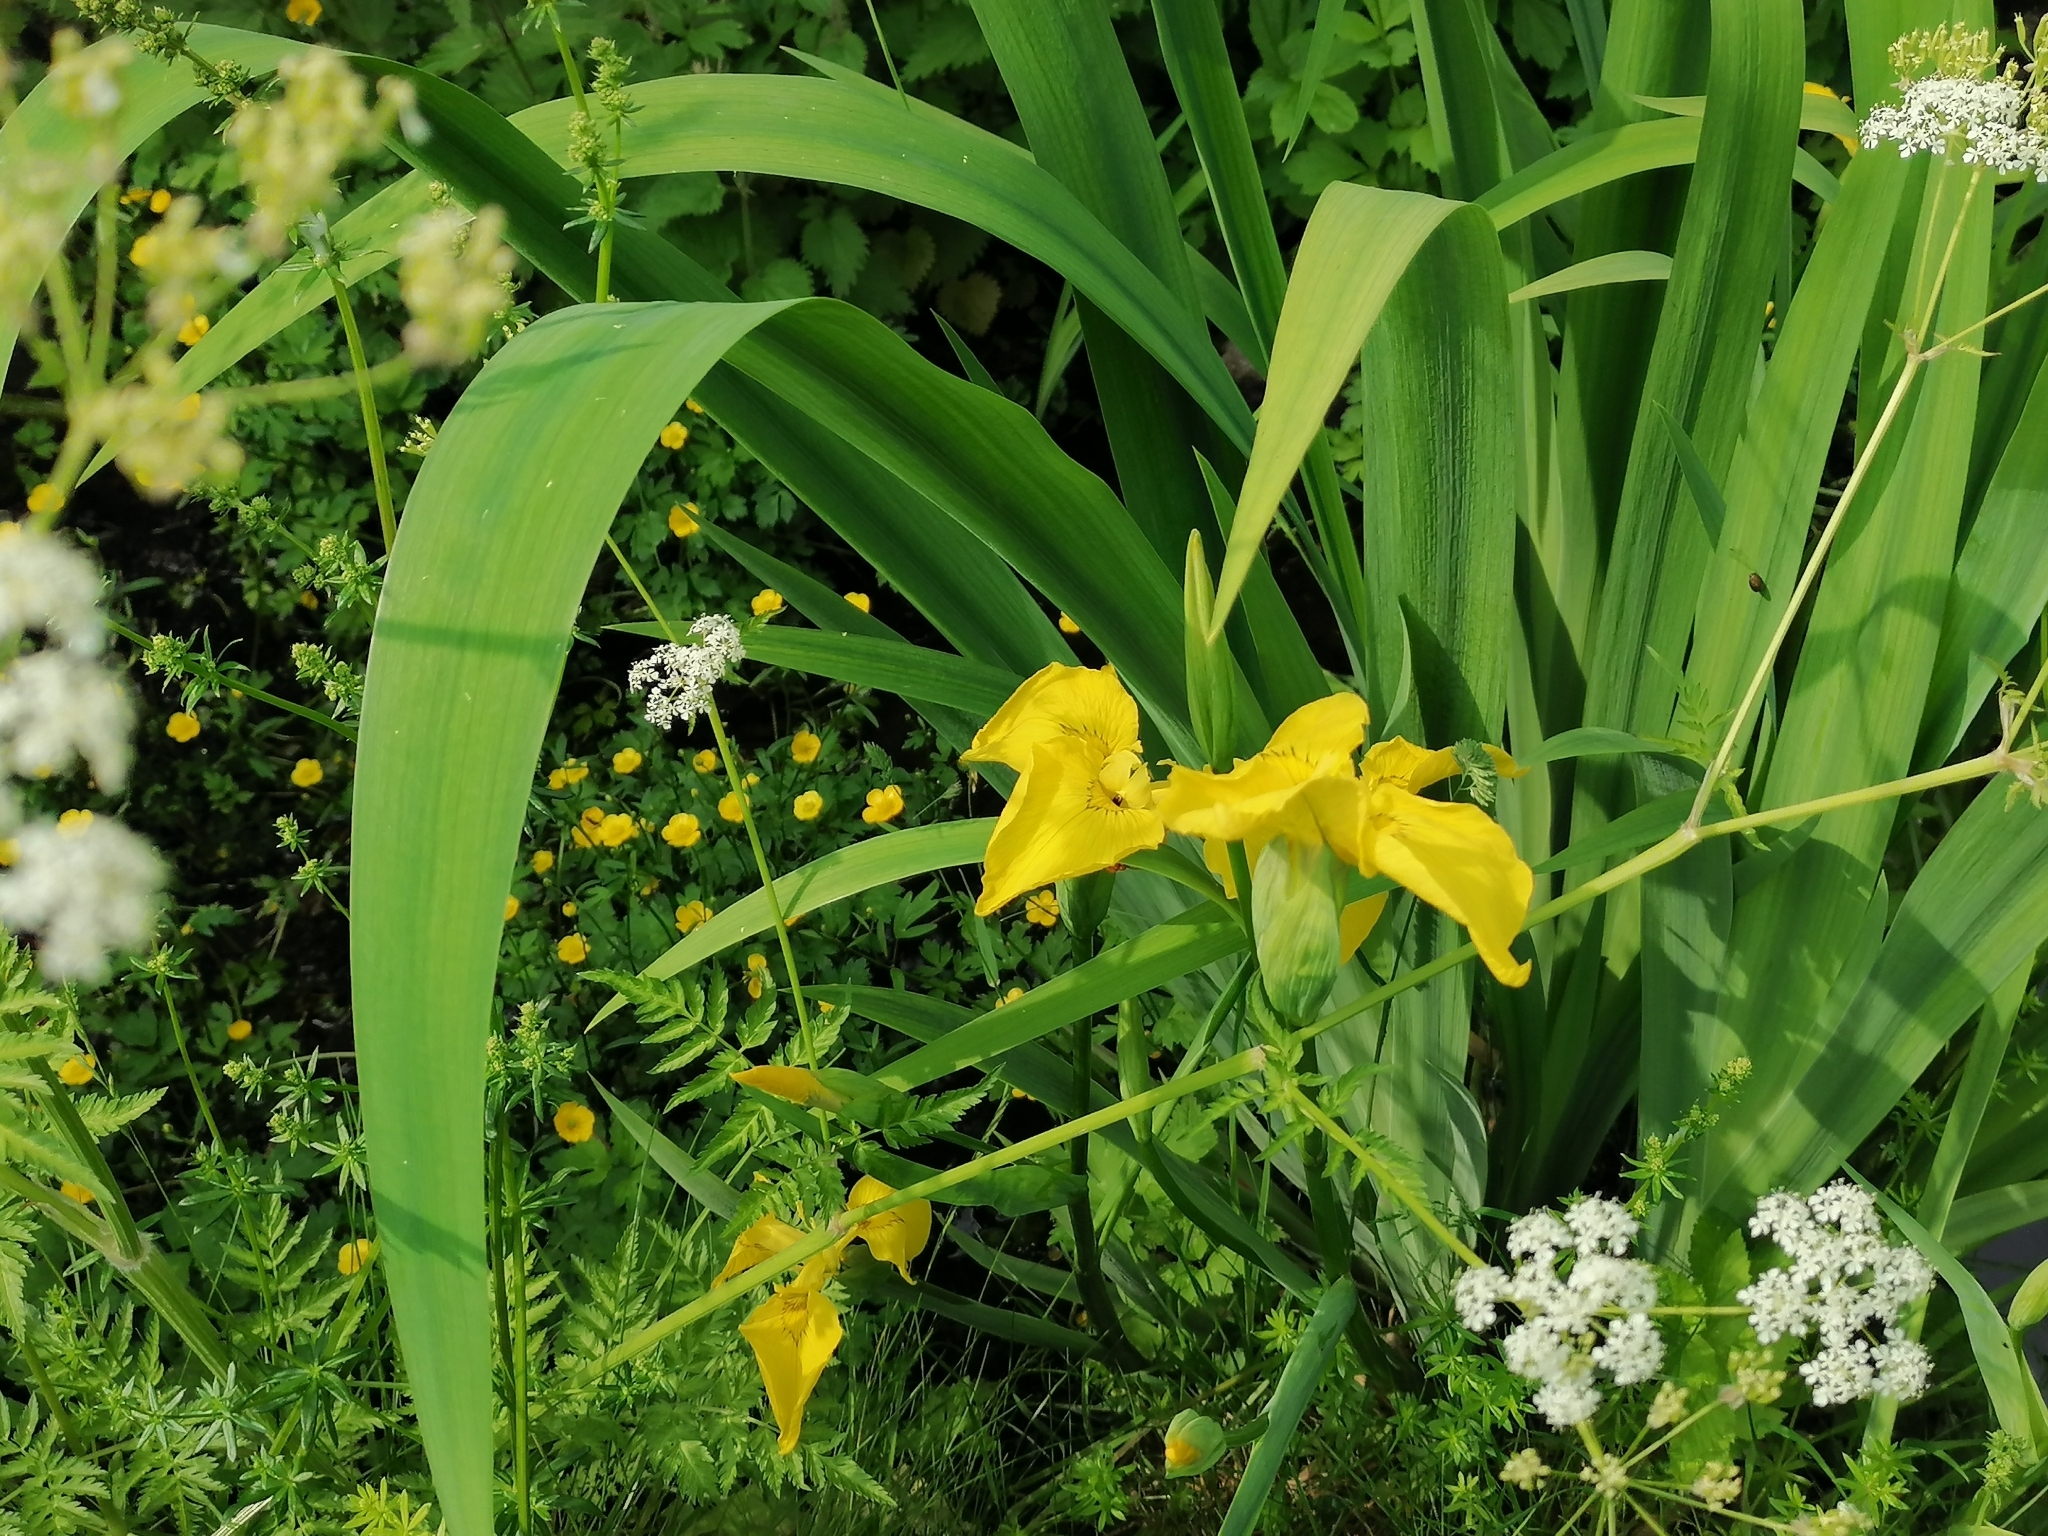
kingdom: Plantae
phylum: Tracheophyta
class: Liliopsida
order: Asparagales
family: Iridaceae
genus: Iris
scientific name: Iris pseudacorus
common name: Yellow flag
